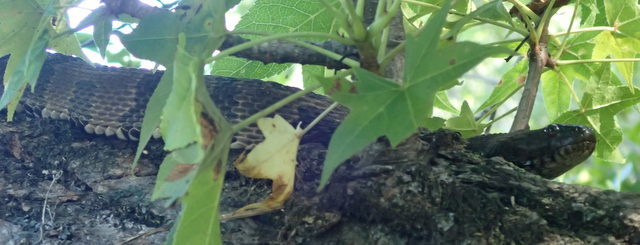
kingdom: Animalia
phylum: Chordata
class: Squamata
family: Colubridae
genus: Nerodia
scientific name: Nerodia taxispilota
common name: Brown water snake
